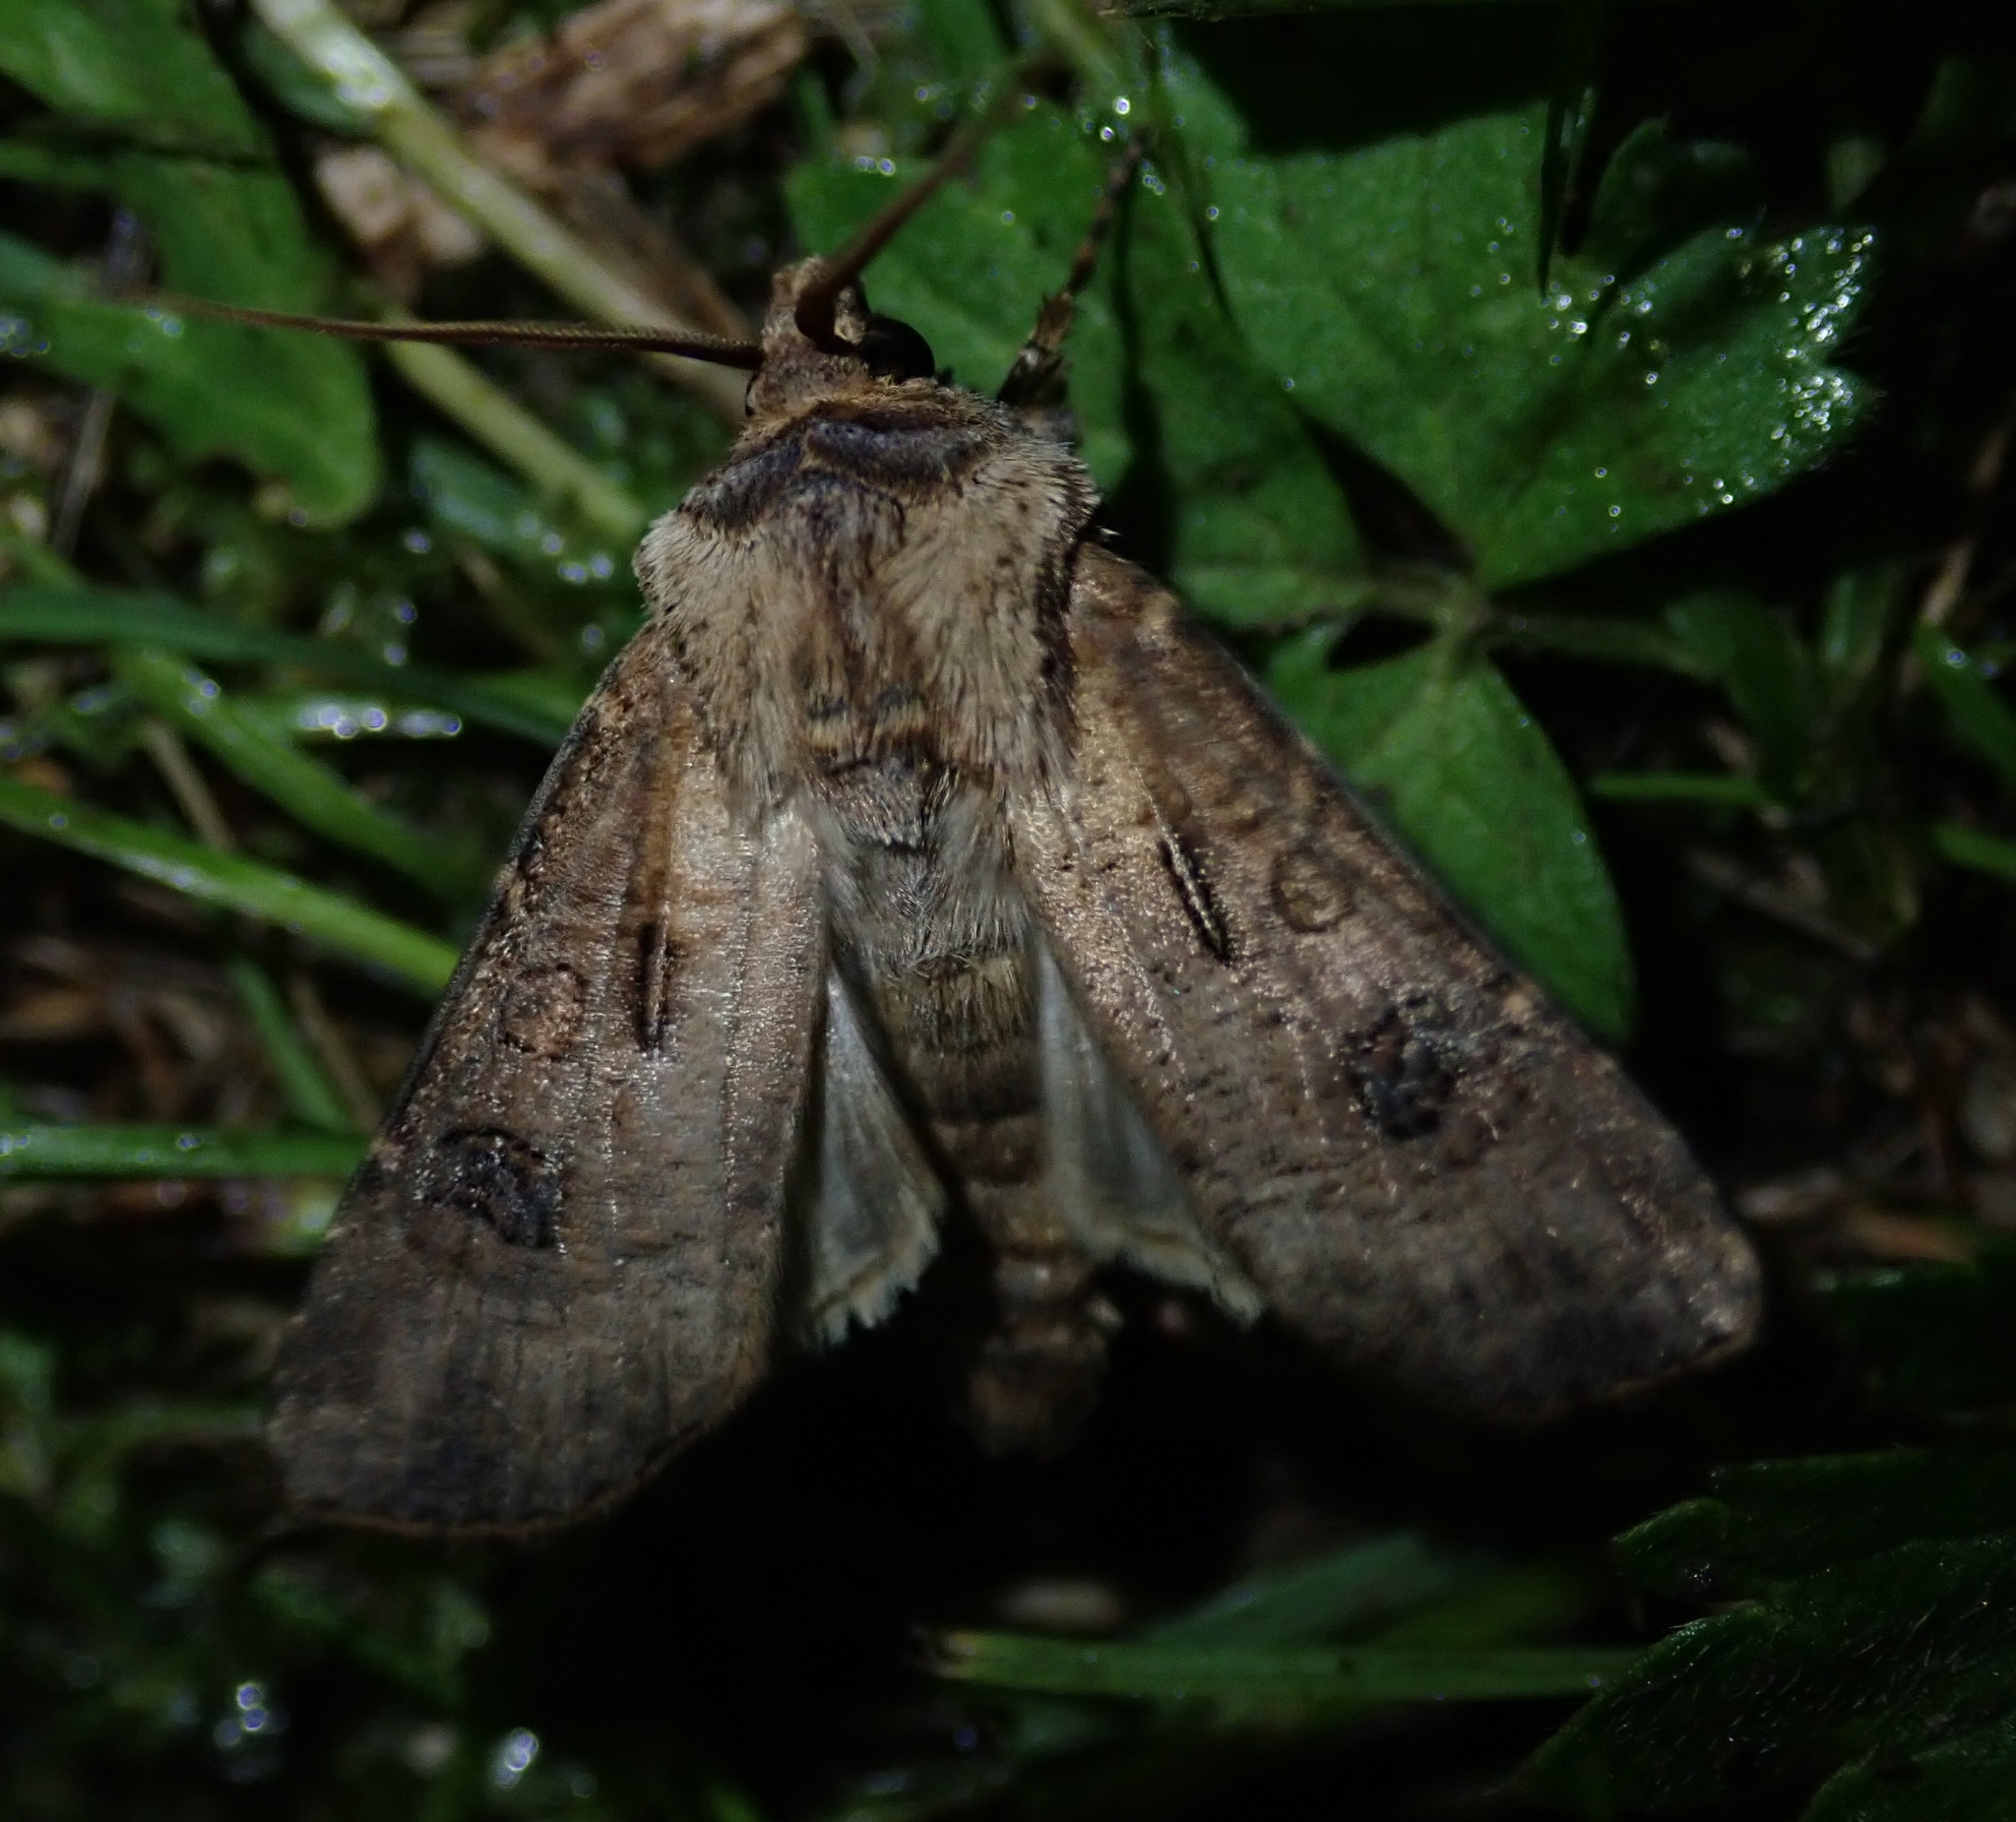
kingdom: Animalia
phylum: Arthropoda
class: Insecta
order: Lepidoptera
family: Noctuidae
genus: Agrotis
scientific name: Agrotis clavis
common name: Heart and club
